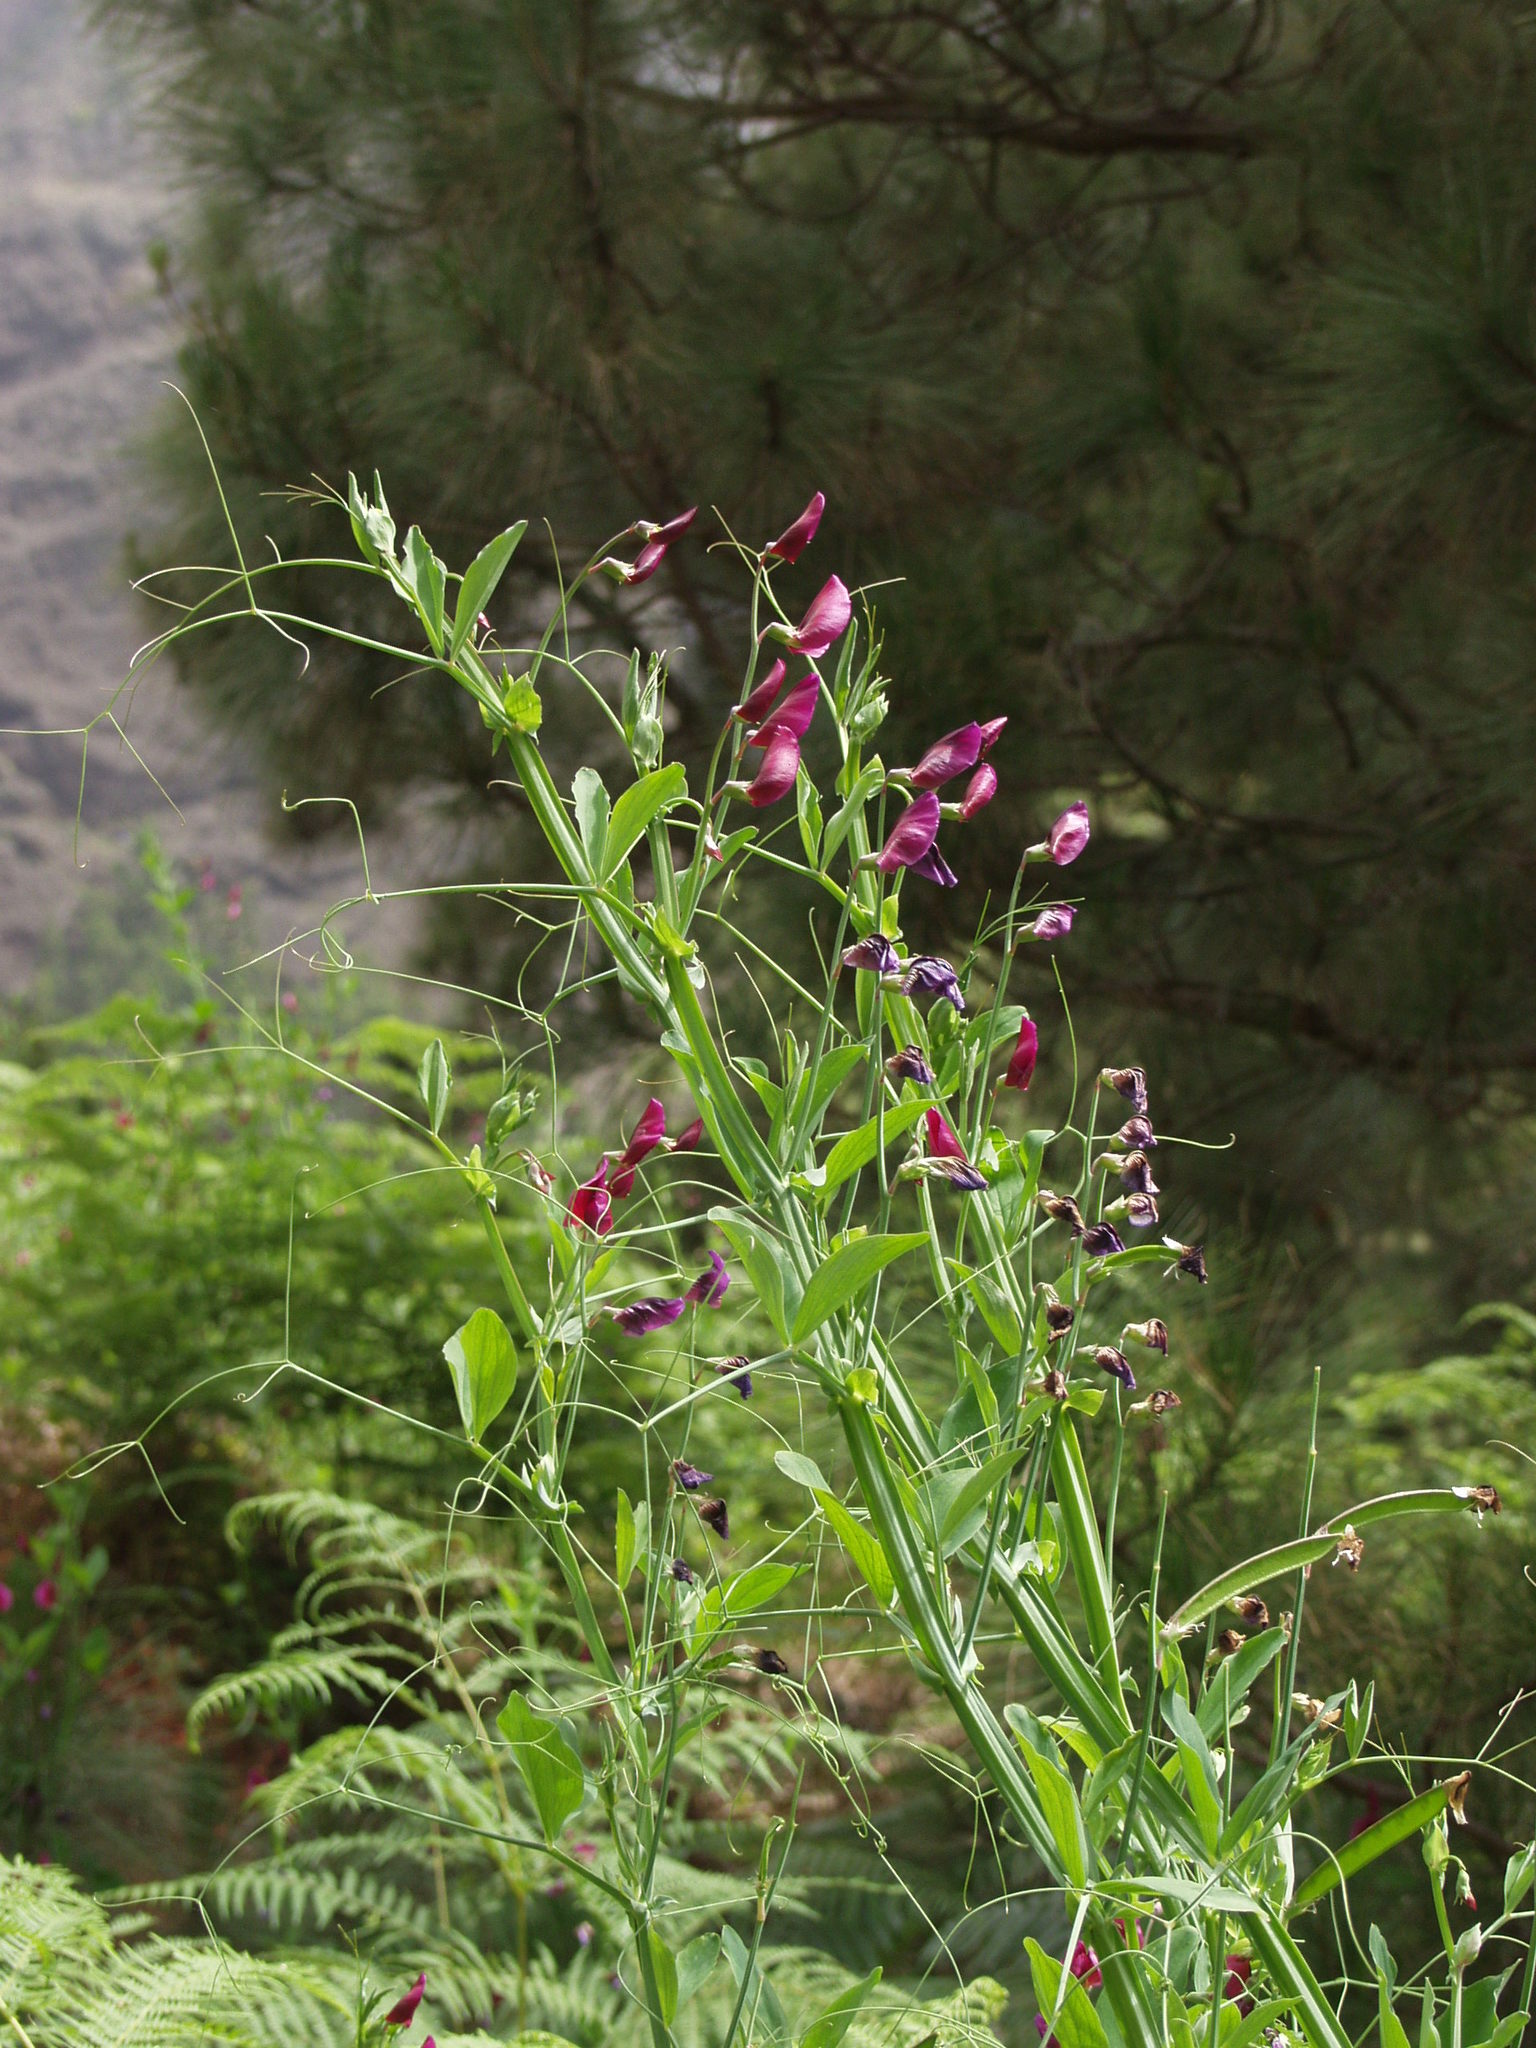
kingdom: Plantae
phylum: Tracheophyta
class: Magnoliopsida
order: Fabales
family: Fabaceae
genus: Lathyrus
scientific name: Lathyrus tingitanus
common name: Tangier pea
